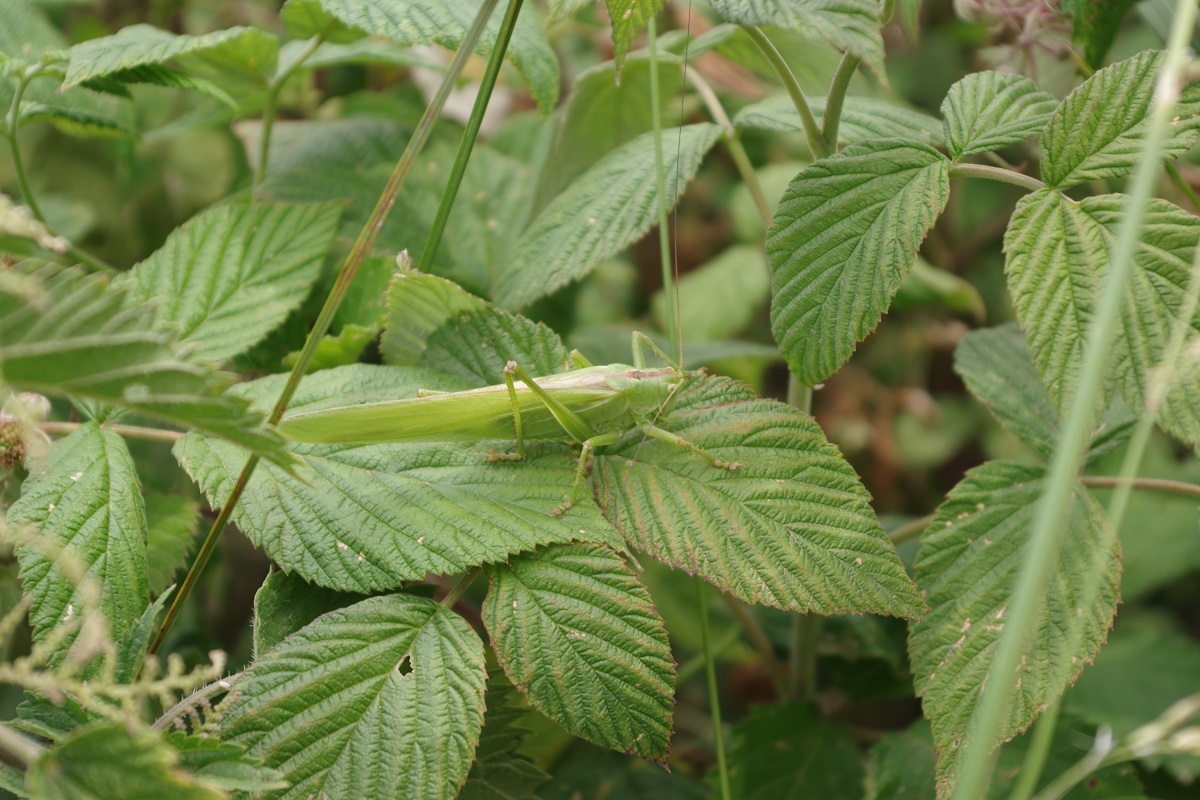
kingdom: Animalia
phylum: Arthropoda
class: Insecta
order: Orthoptera
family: Tettigoniidae
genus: Tettigonia
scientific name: Tettigonia viridissima
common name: Great green bush-cricket
